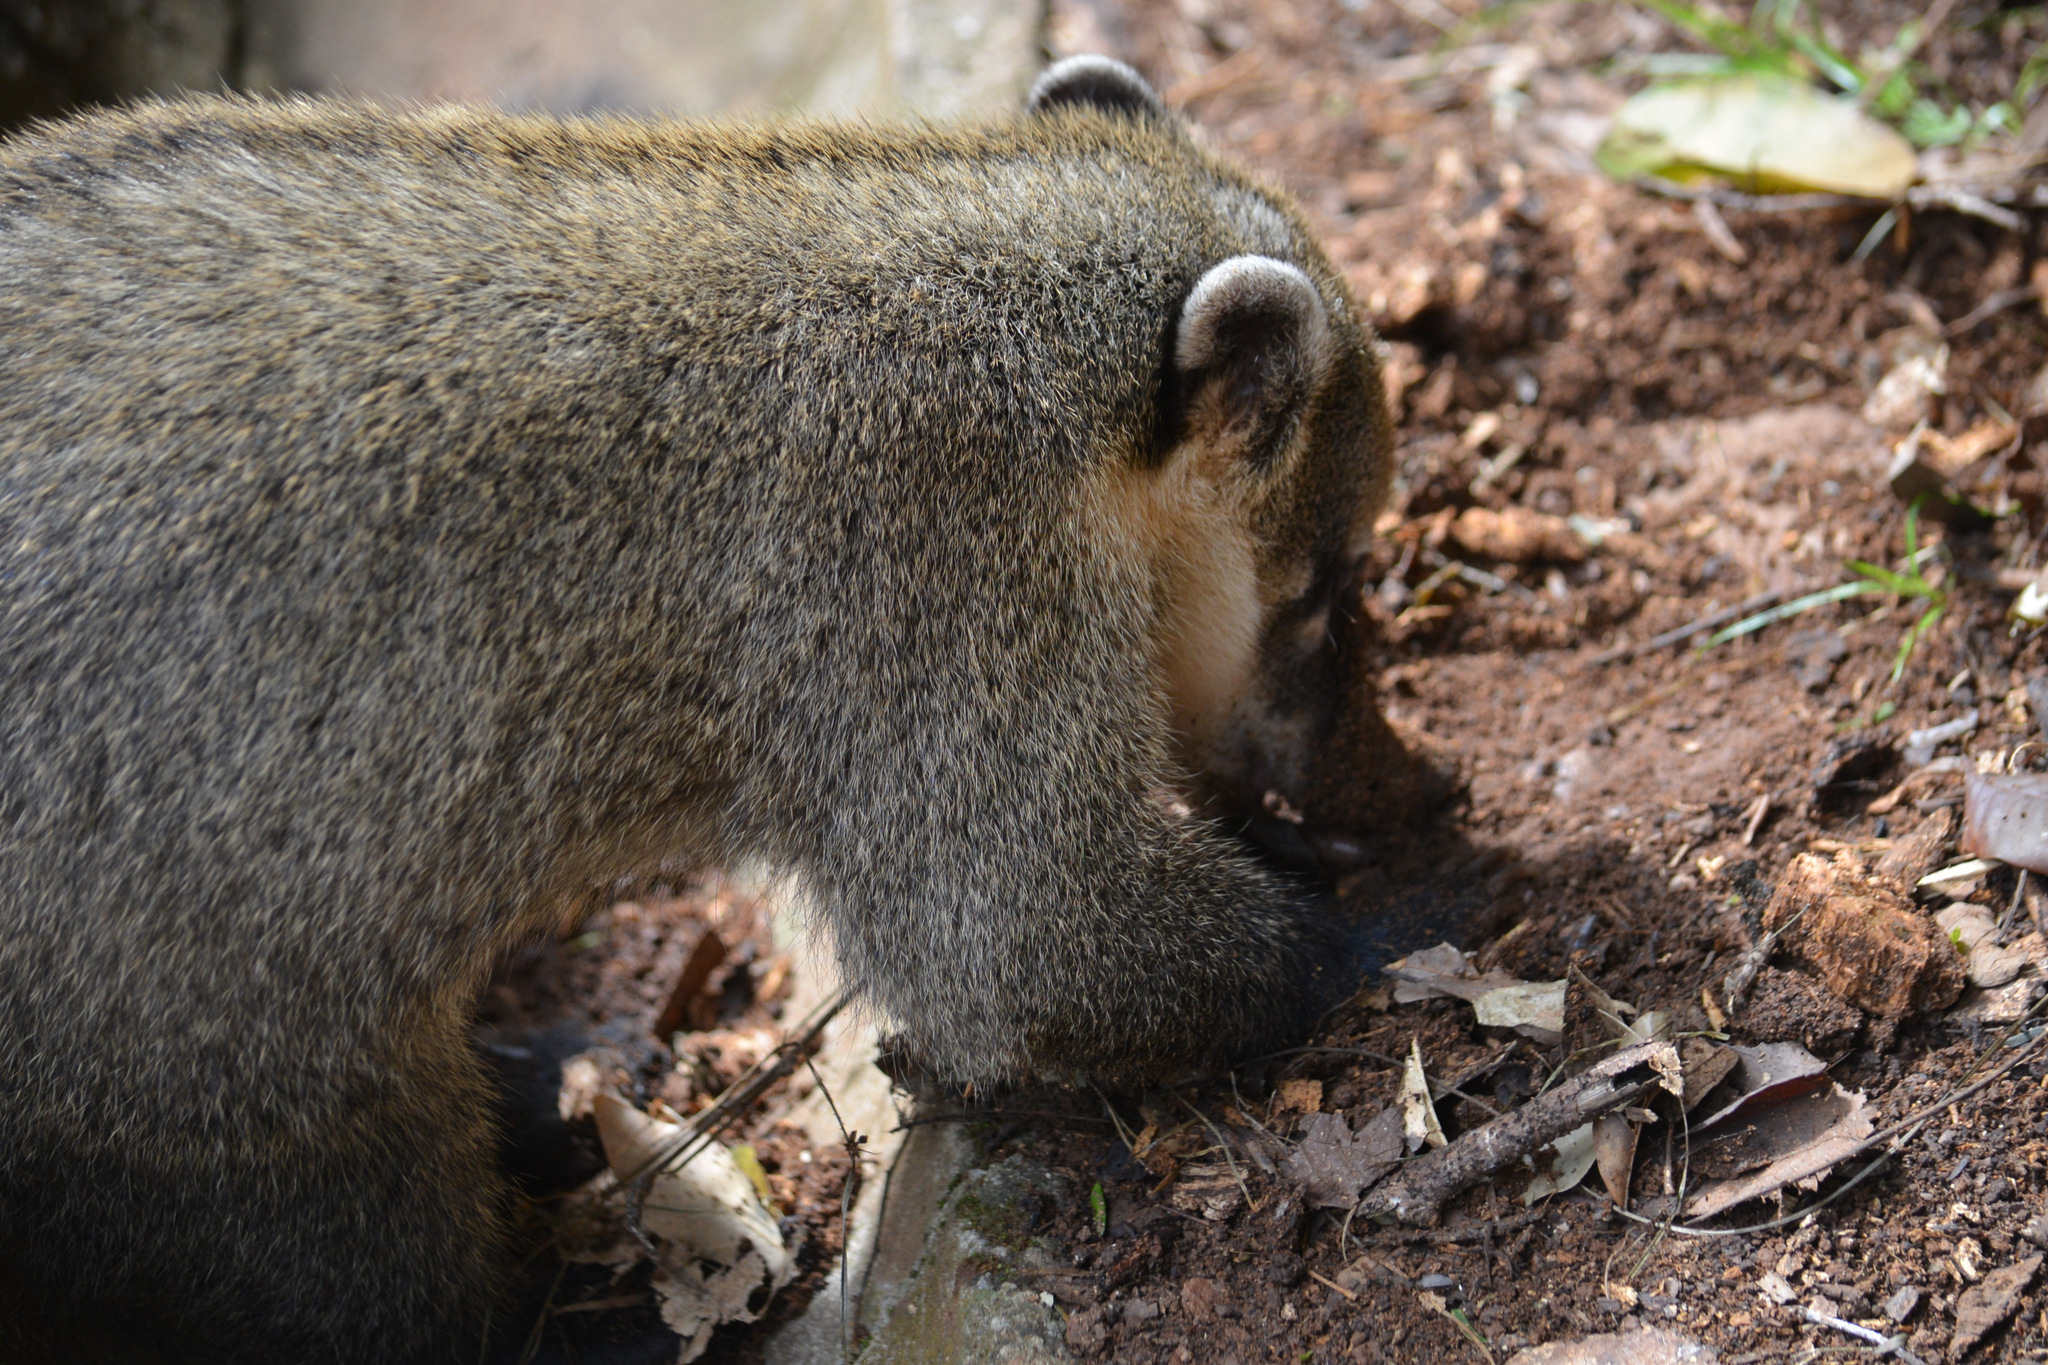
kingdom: Animalia
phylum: Chordata
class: Mammalia
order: Carnivora
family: Procyonidae
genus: Nasua
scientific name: Nasua nasua
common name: South american coati
